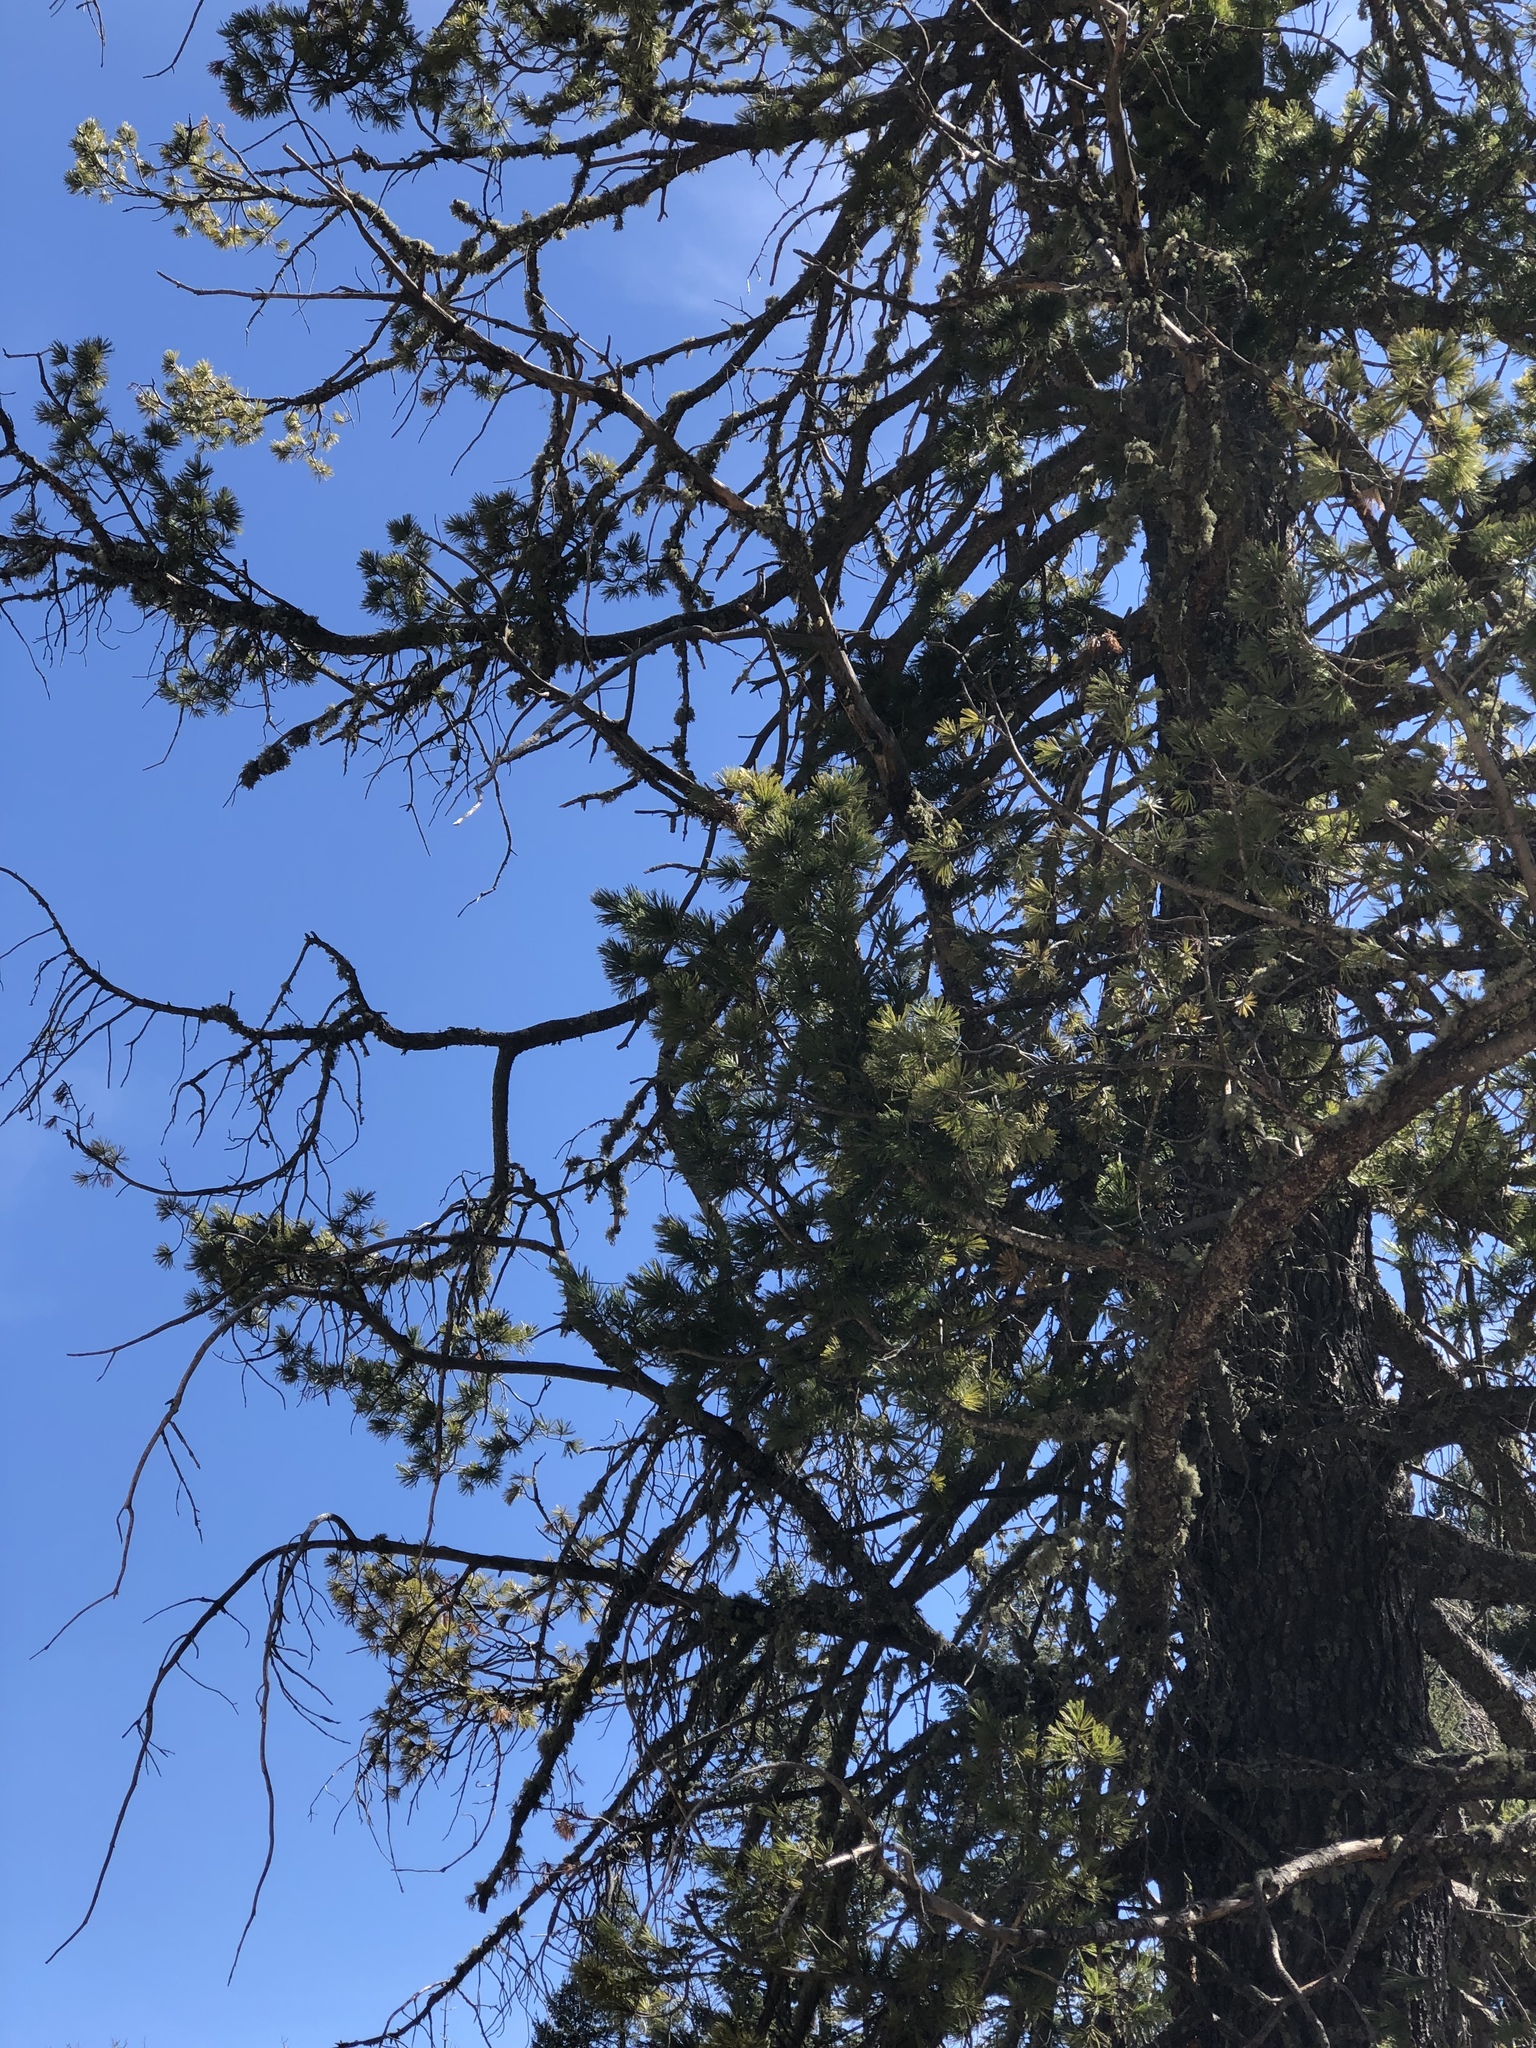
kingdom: Plantae
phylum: Tracheophyta
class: Pinopsida
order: Pinales
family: Pinaceae
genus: Abies
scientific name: Abies concolor
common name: Colorado fir
